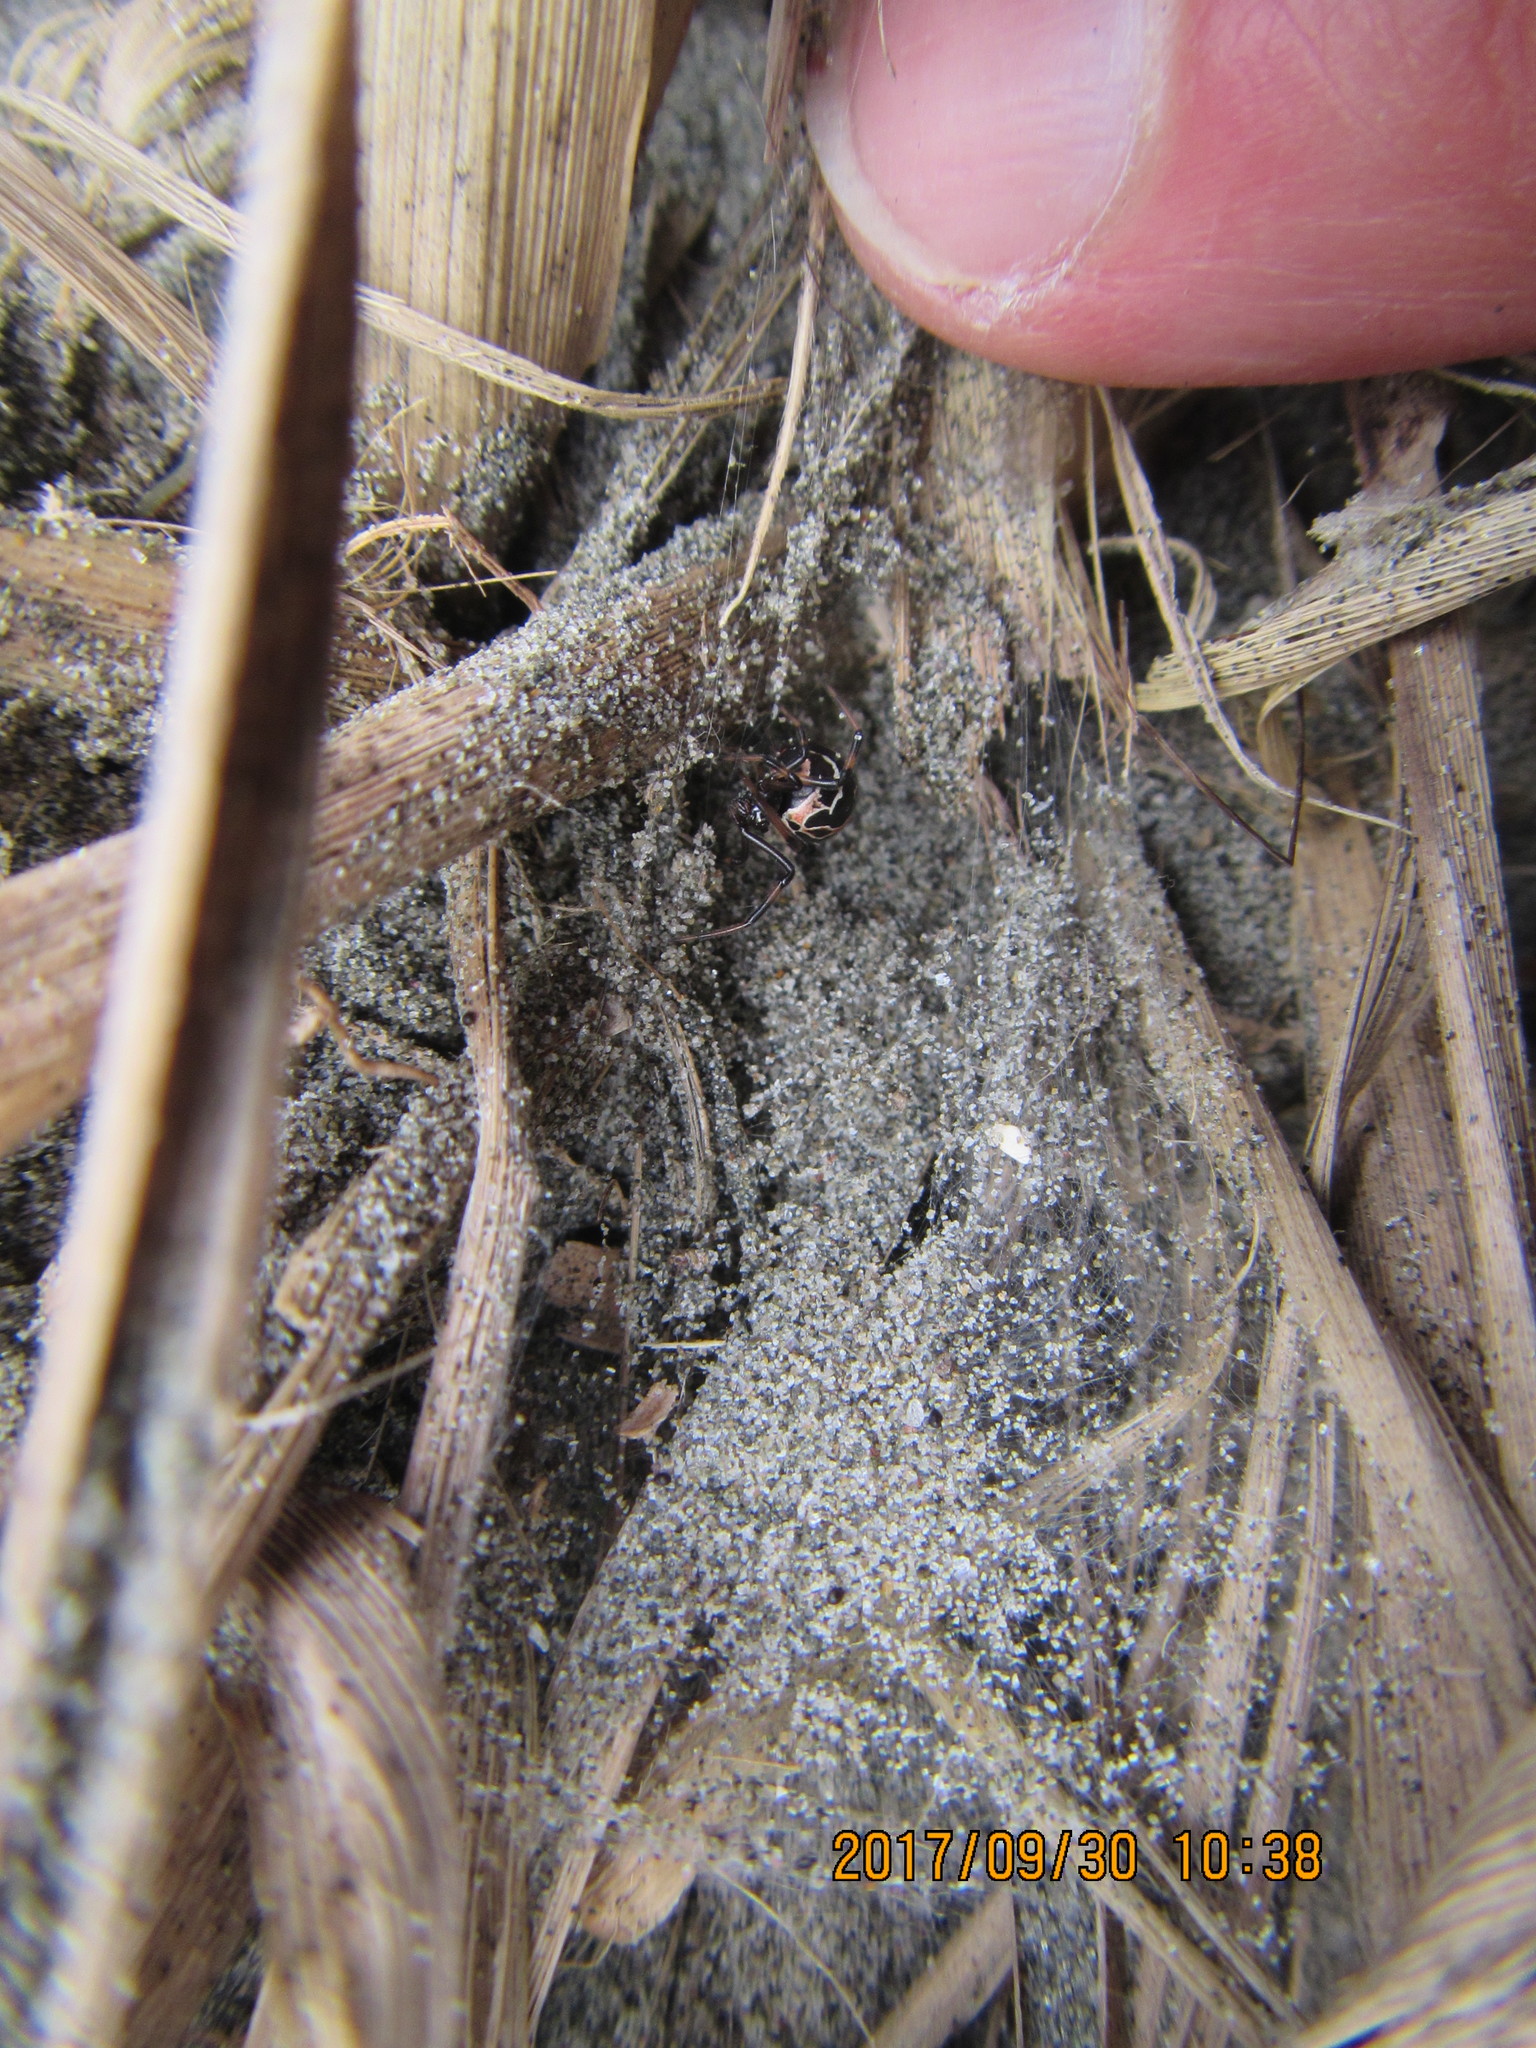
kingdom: Animalia
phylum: Arthropoda
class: Arachnida
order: Araneae
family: Theridiidae
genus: Latrodectus
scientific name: Latrodectus katipo
